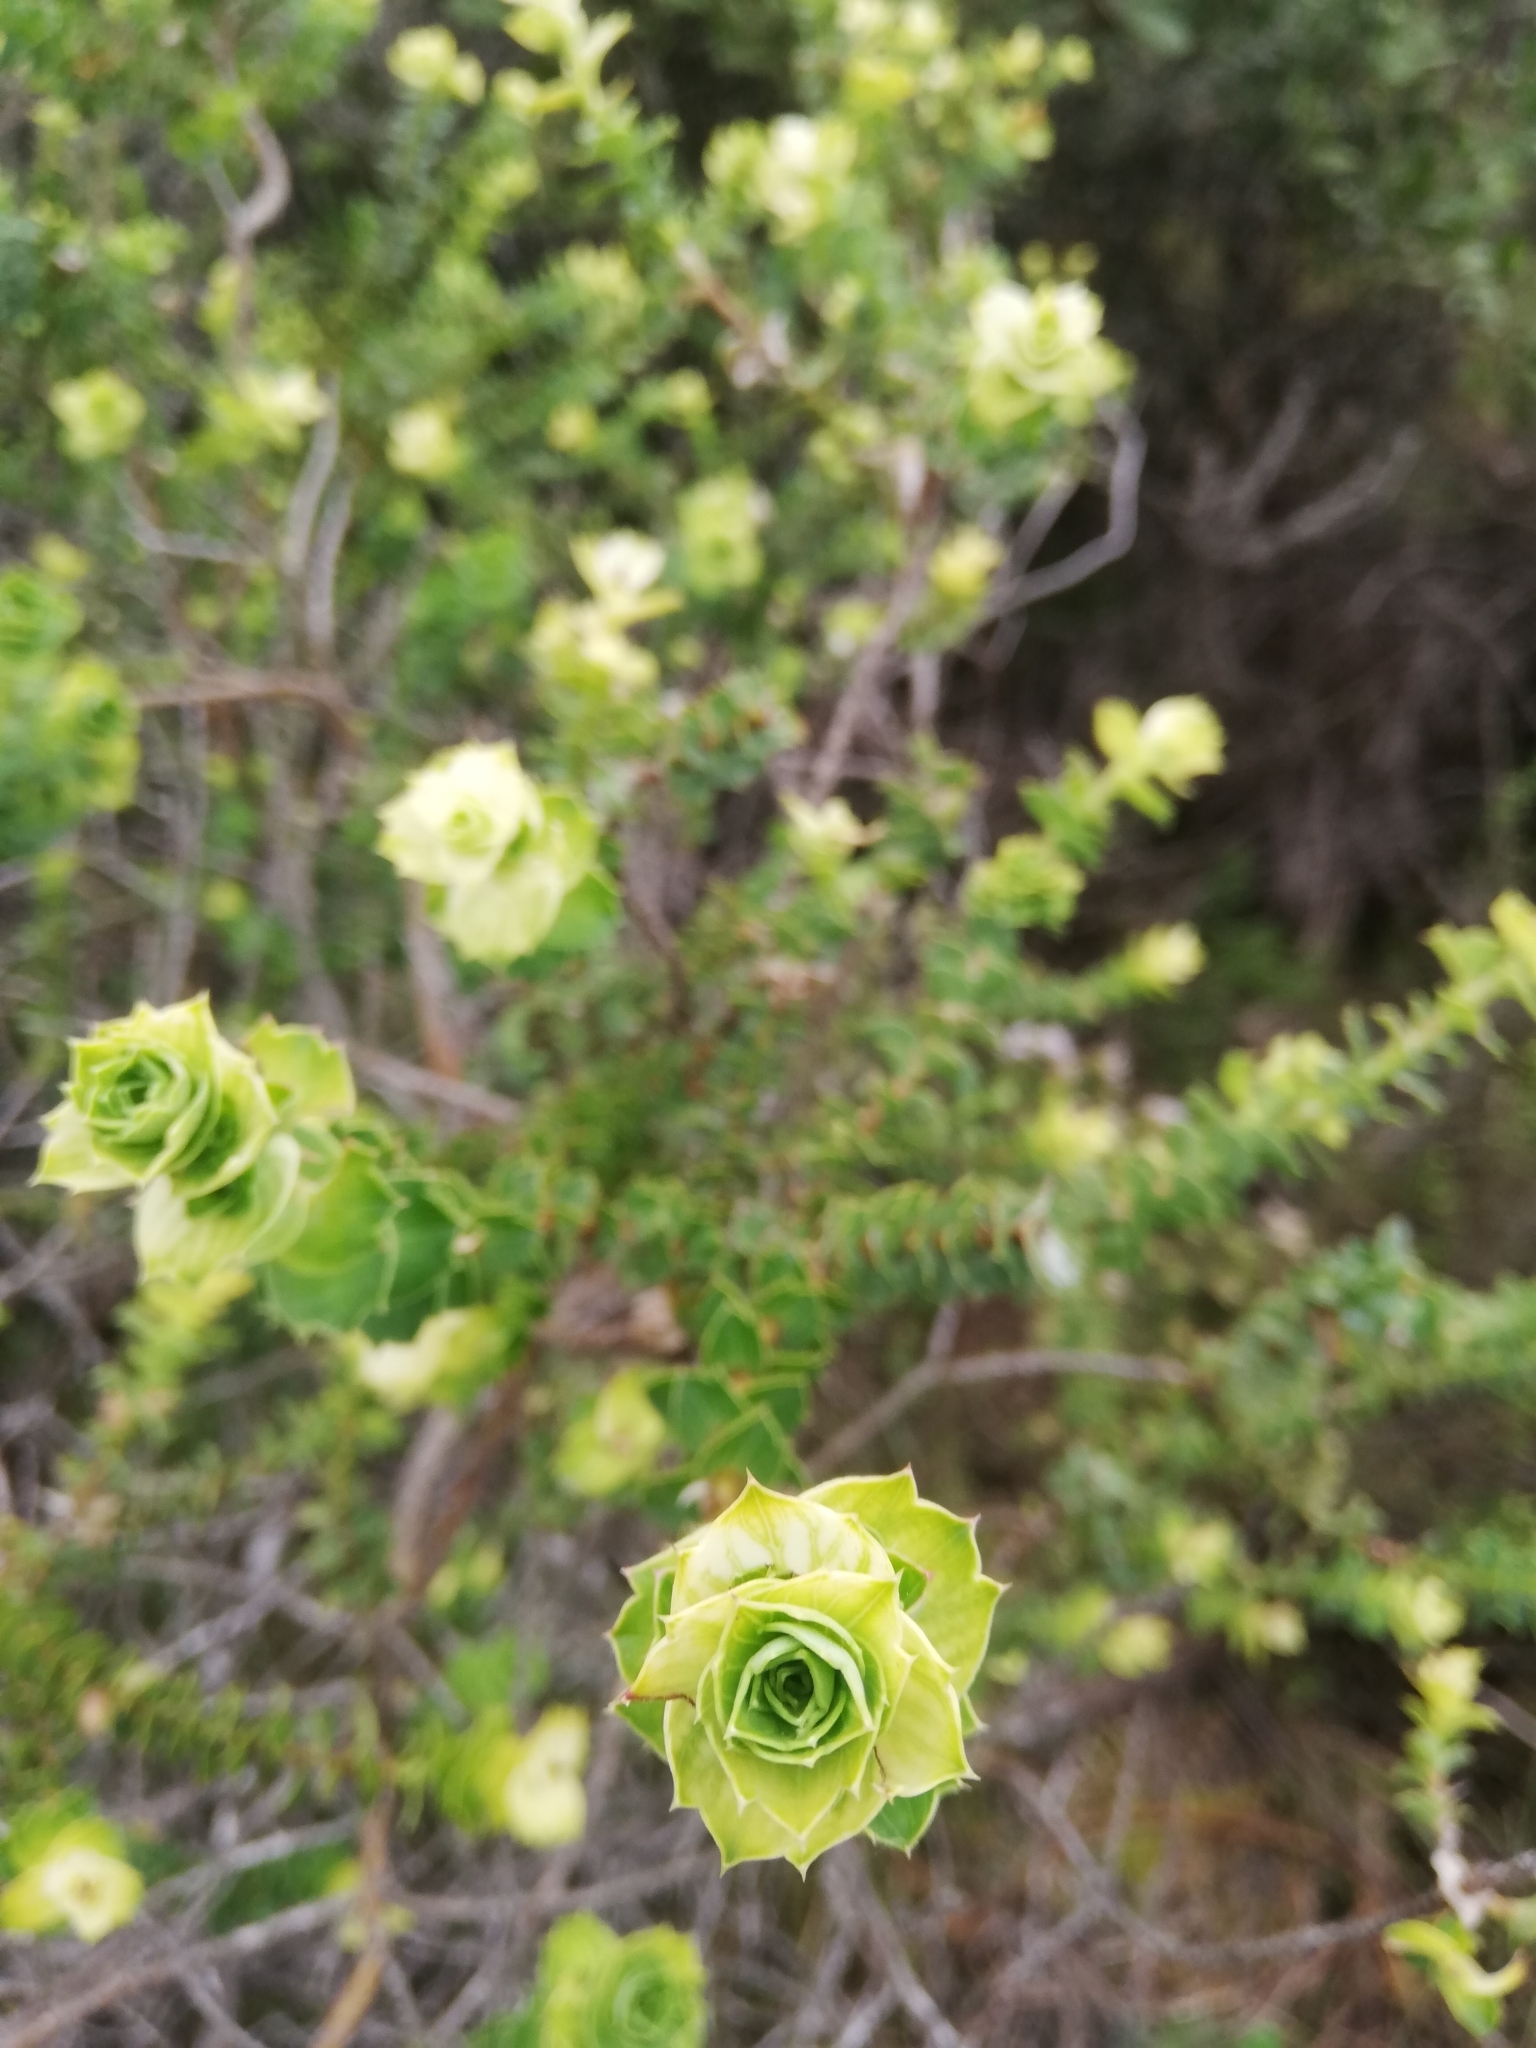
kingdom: Plantae
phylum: Tracheophyta
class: Magnoliopsida
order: Rosales
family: Rosaceae
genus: Cliffortia
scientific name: Cliffortia schlechteri
